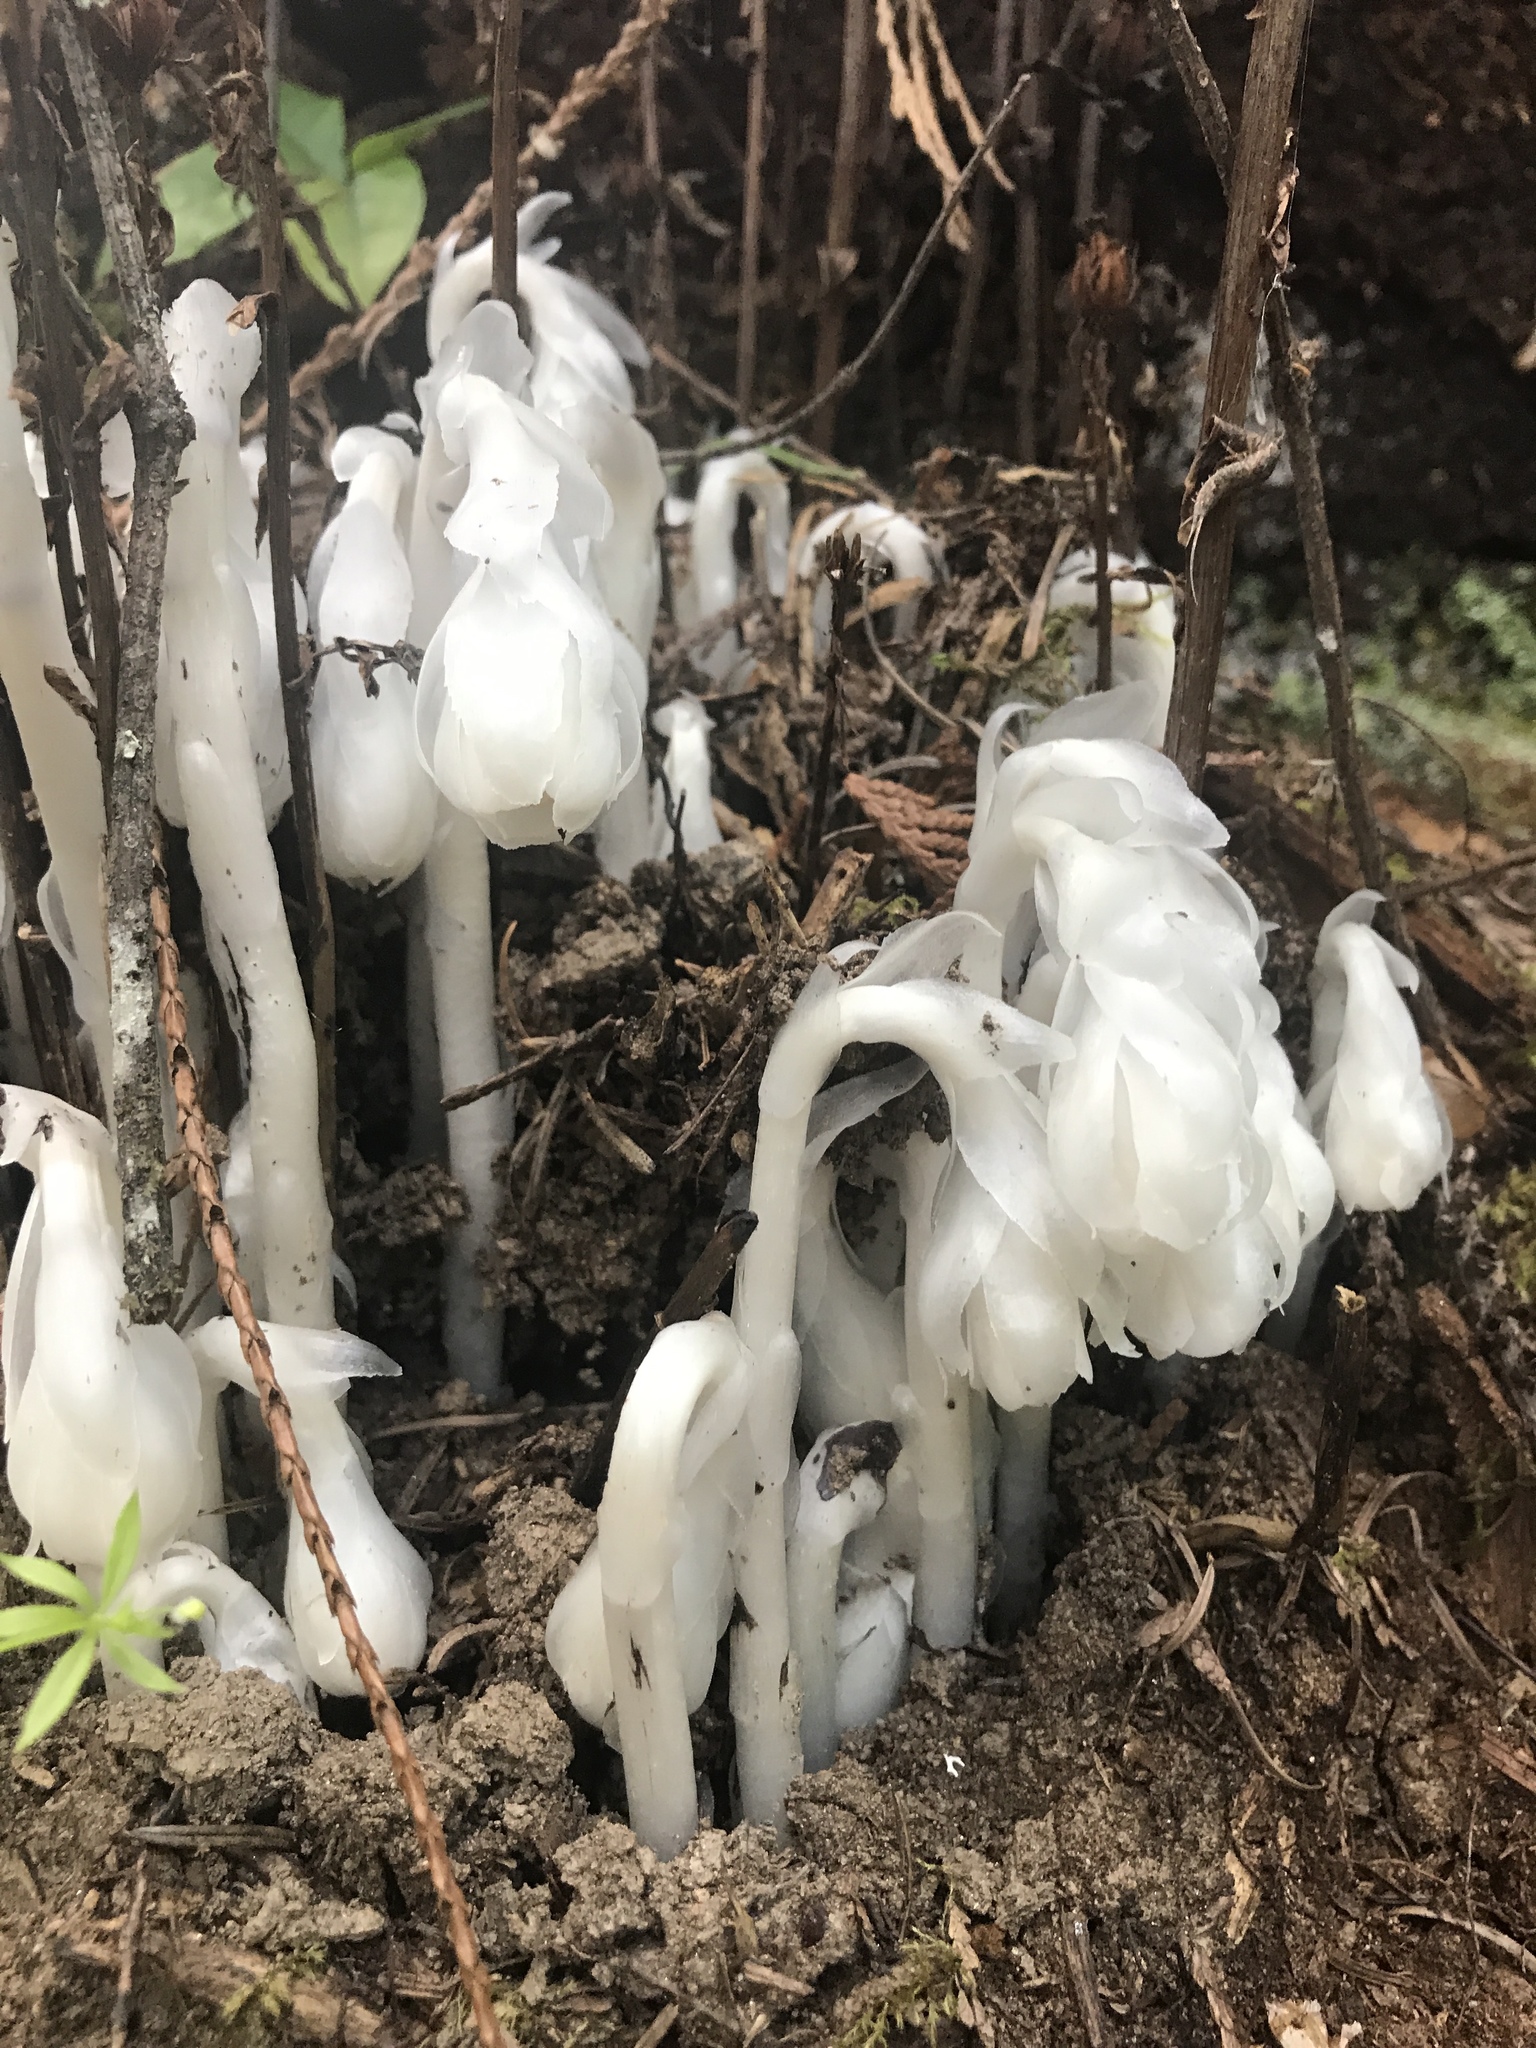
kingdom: Plantae
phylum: Tracheophyta
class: Magnoliopsida
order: Ericales
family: Ericaceae
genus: Monotropa
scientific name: Monotropa uniflora
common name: Convulsion root
